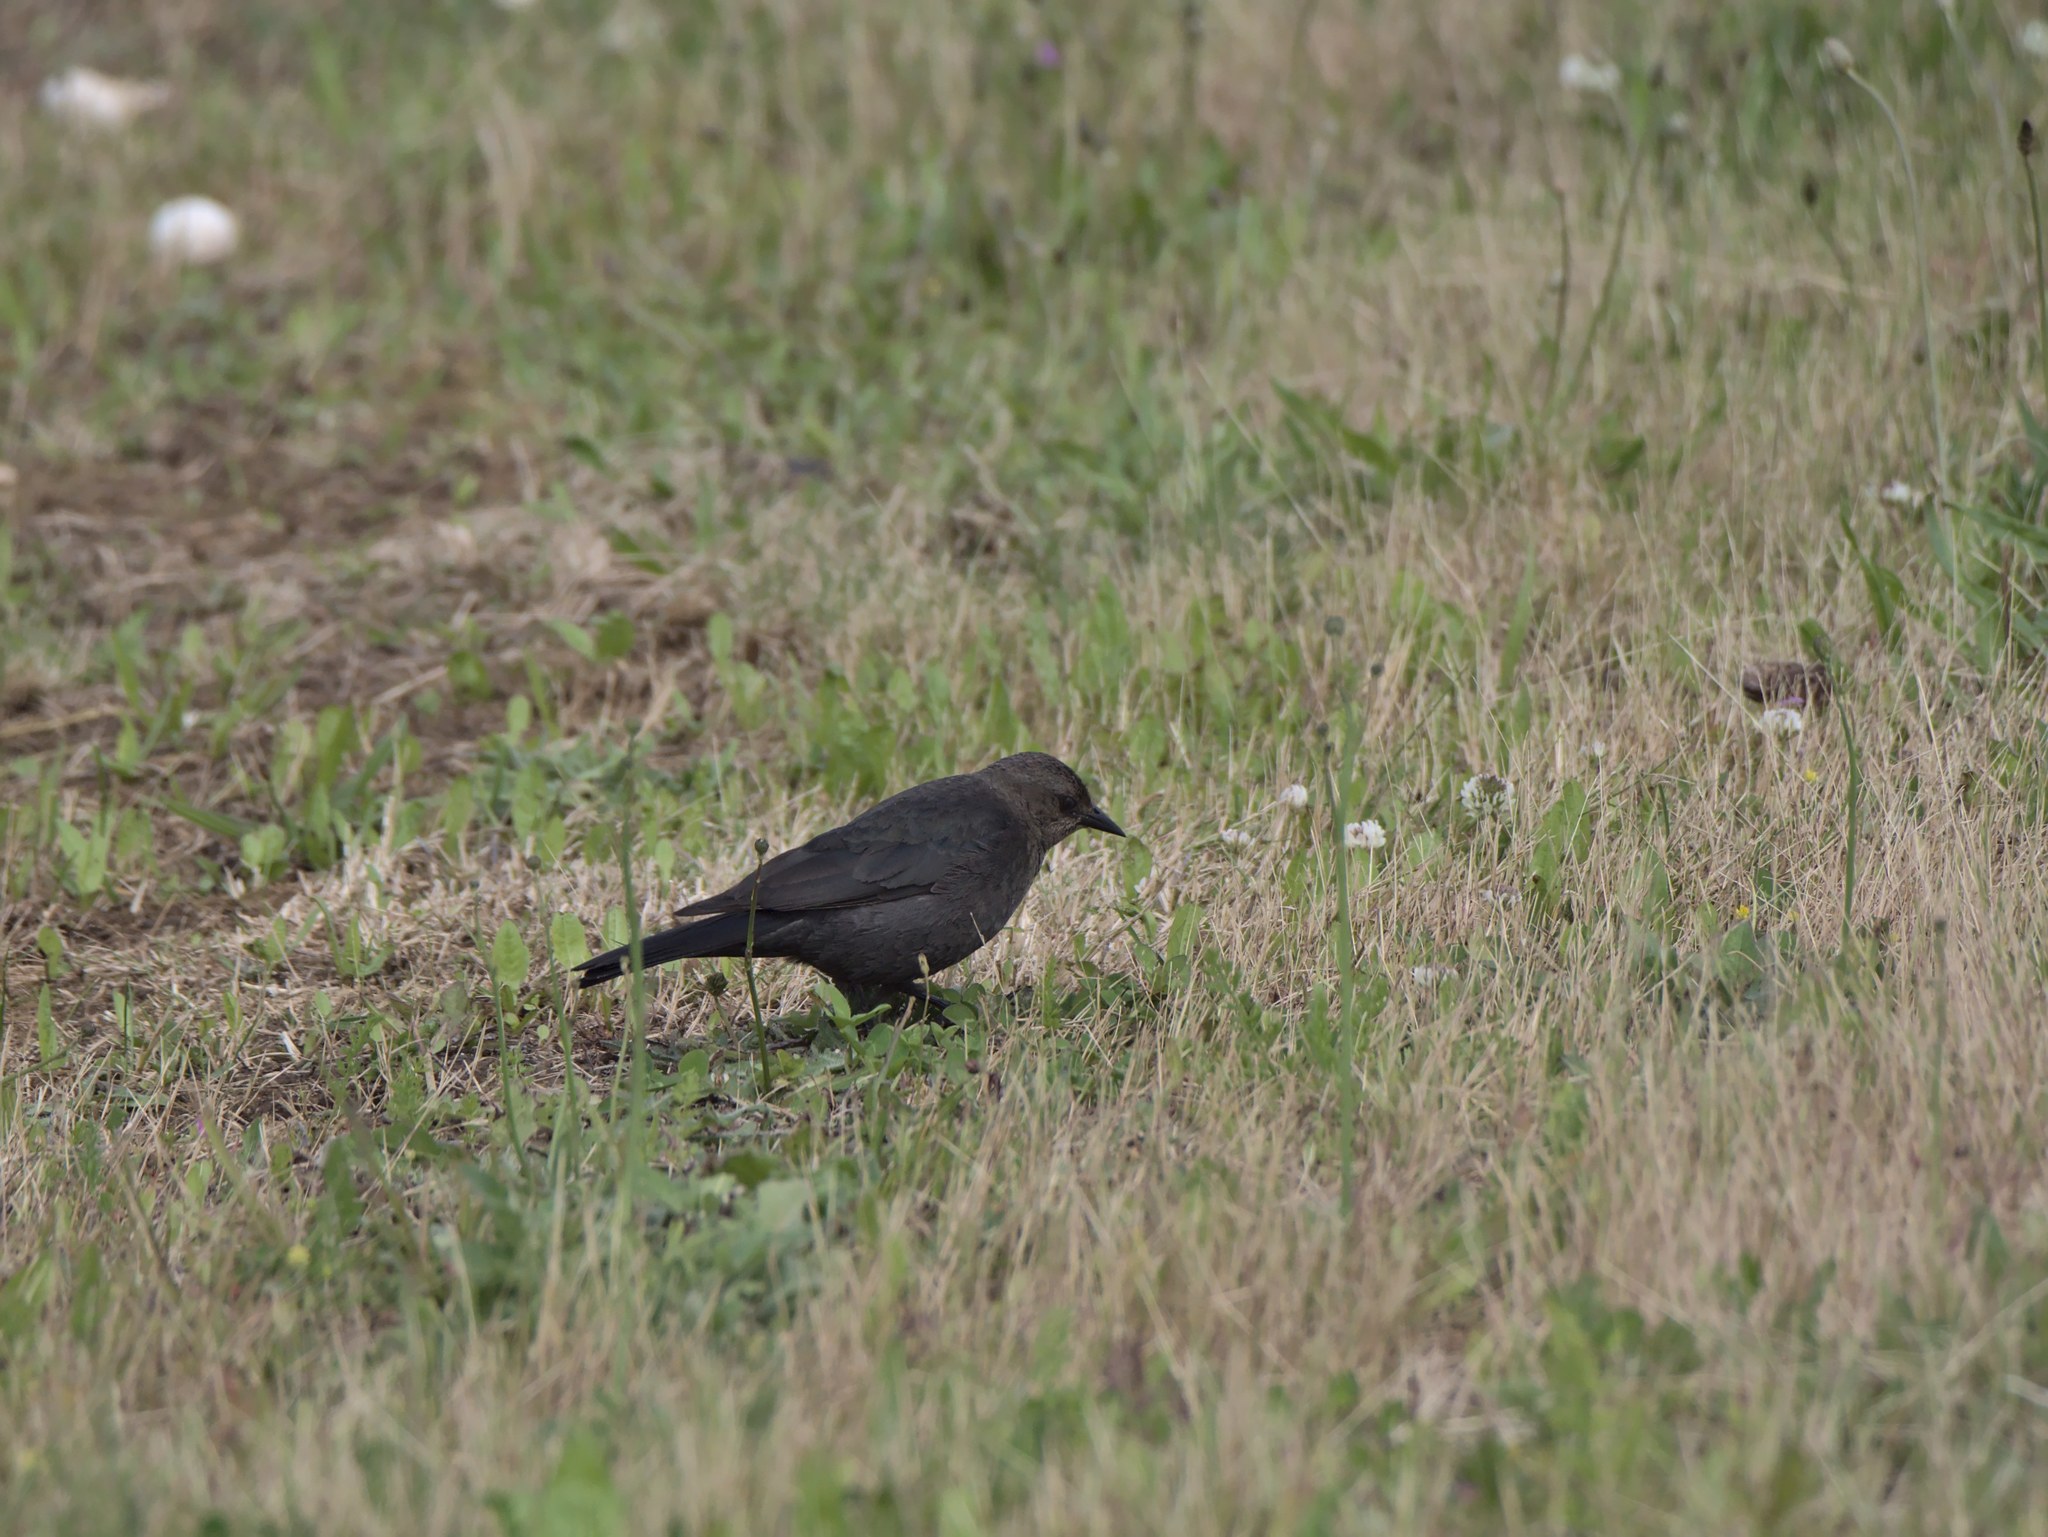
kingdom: Animalia
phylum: Chordata
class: Aves
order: Passeriformes
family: Icteridae
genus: Euphagus
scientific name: Euphagus cyanocephalus
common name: Brewer's blackbird
